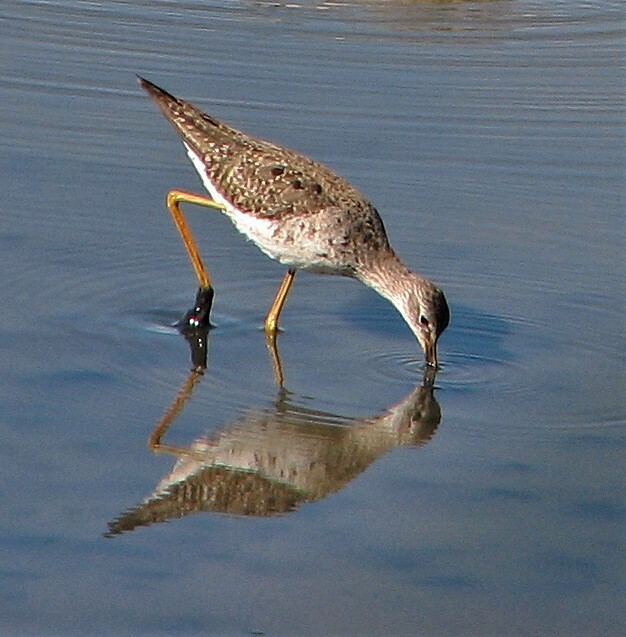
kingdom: Animalia
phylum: Chordata
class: Aves
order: Charadriiformes
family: Scolopacidae
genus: Tringa
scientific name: Tringa flavipes
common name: Lesser yellowlegs
